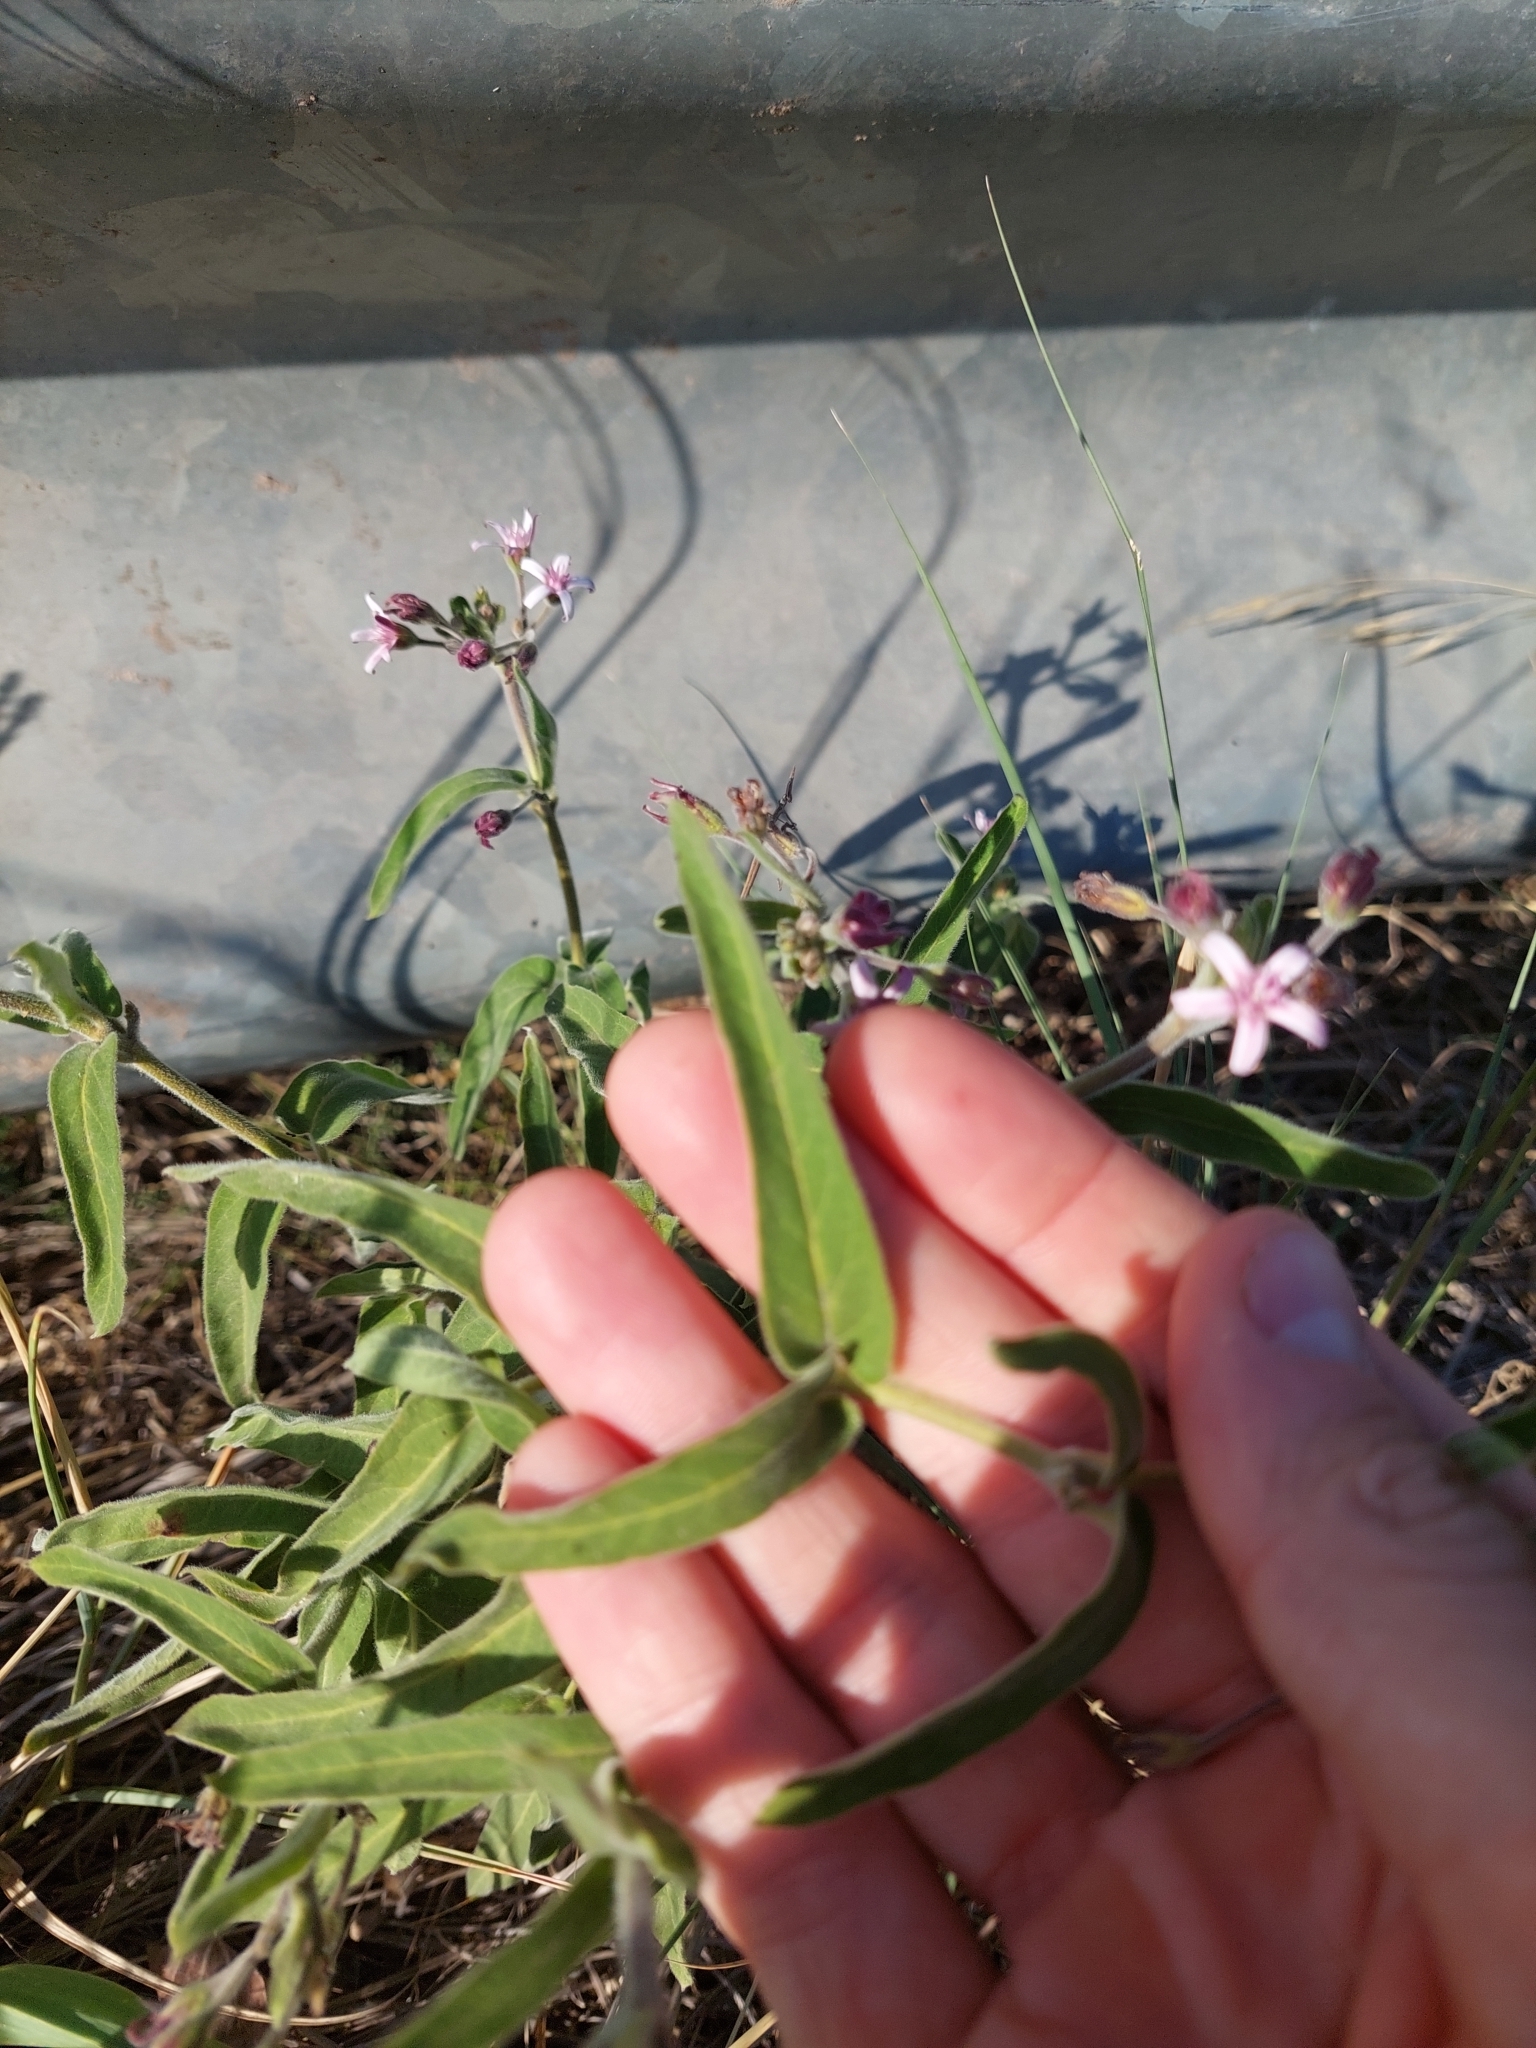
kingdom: Plantae
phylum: Tracheophyta
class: Magnoliopsida
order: Gentianales
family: Apocynaceae
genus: Oxypetalum
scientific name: Oxypetalum solanoides
